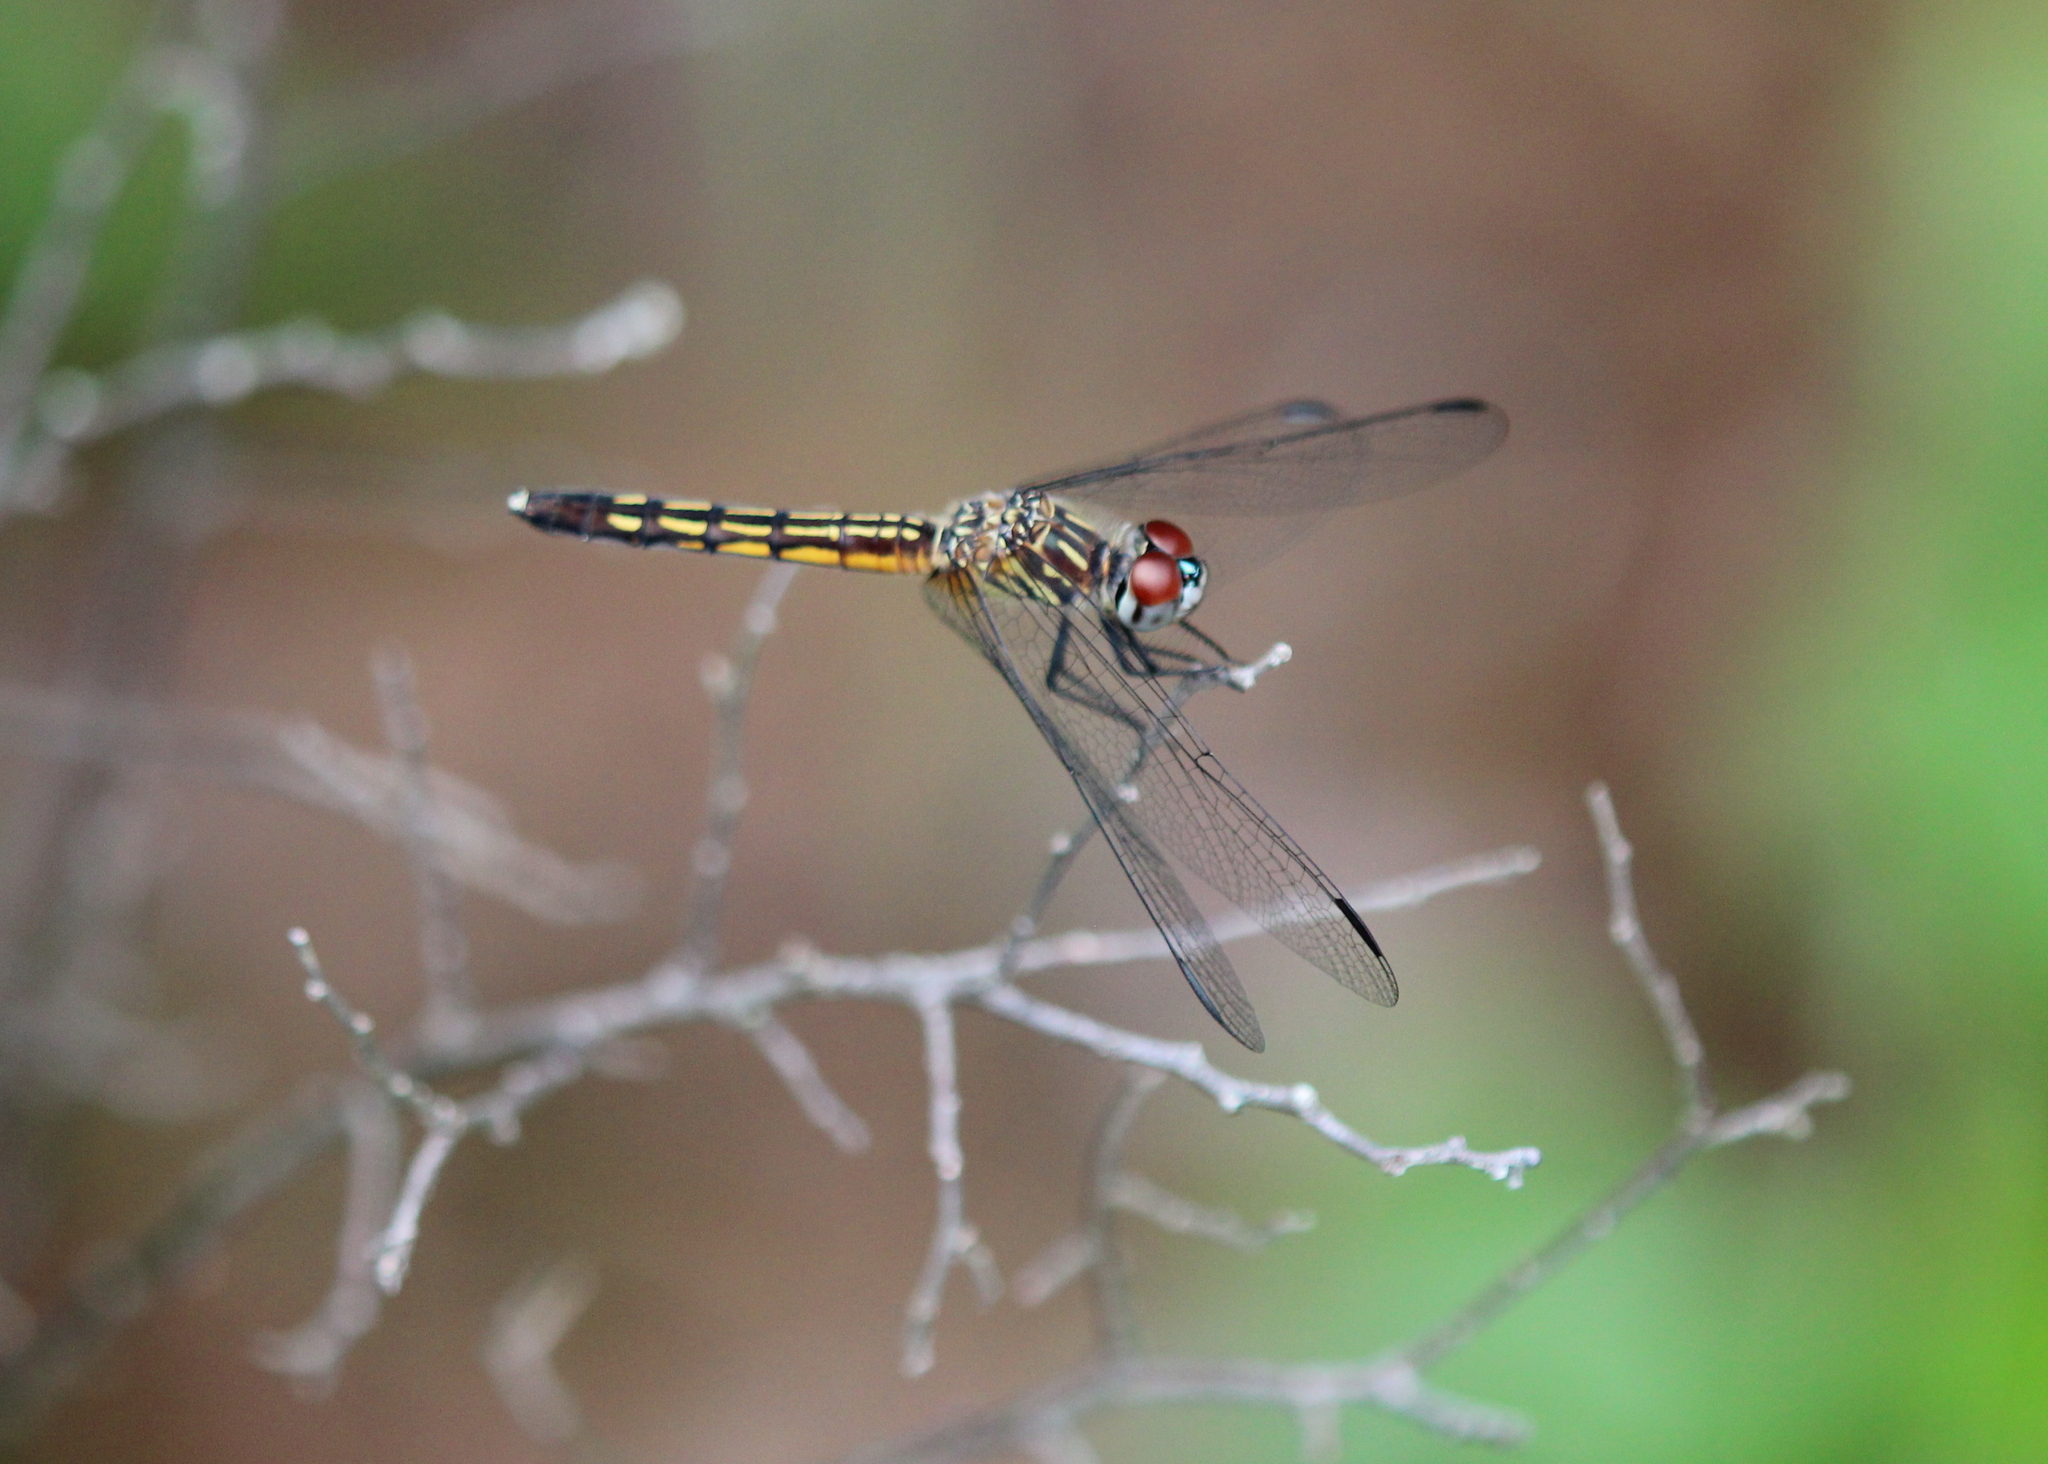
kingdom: Animalia
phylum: Arthropoda
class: Insecta
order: Odonata
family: Libellulidae
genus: Pachydiplax
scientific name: Pachydiplax longipennis
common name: Blue dasher
